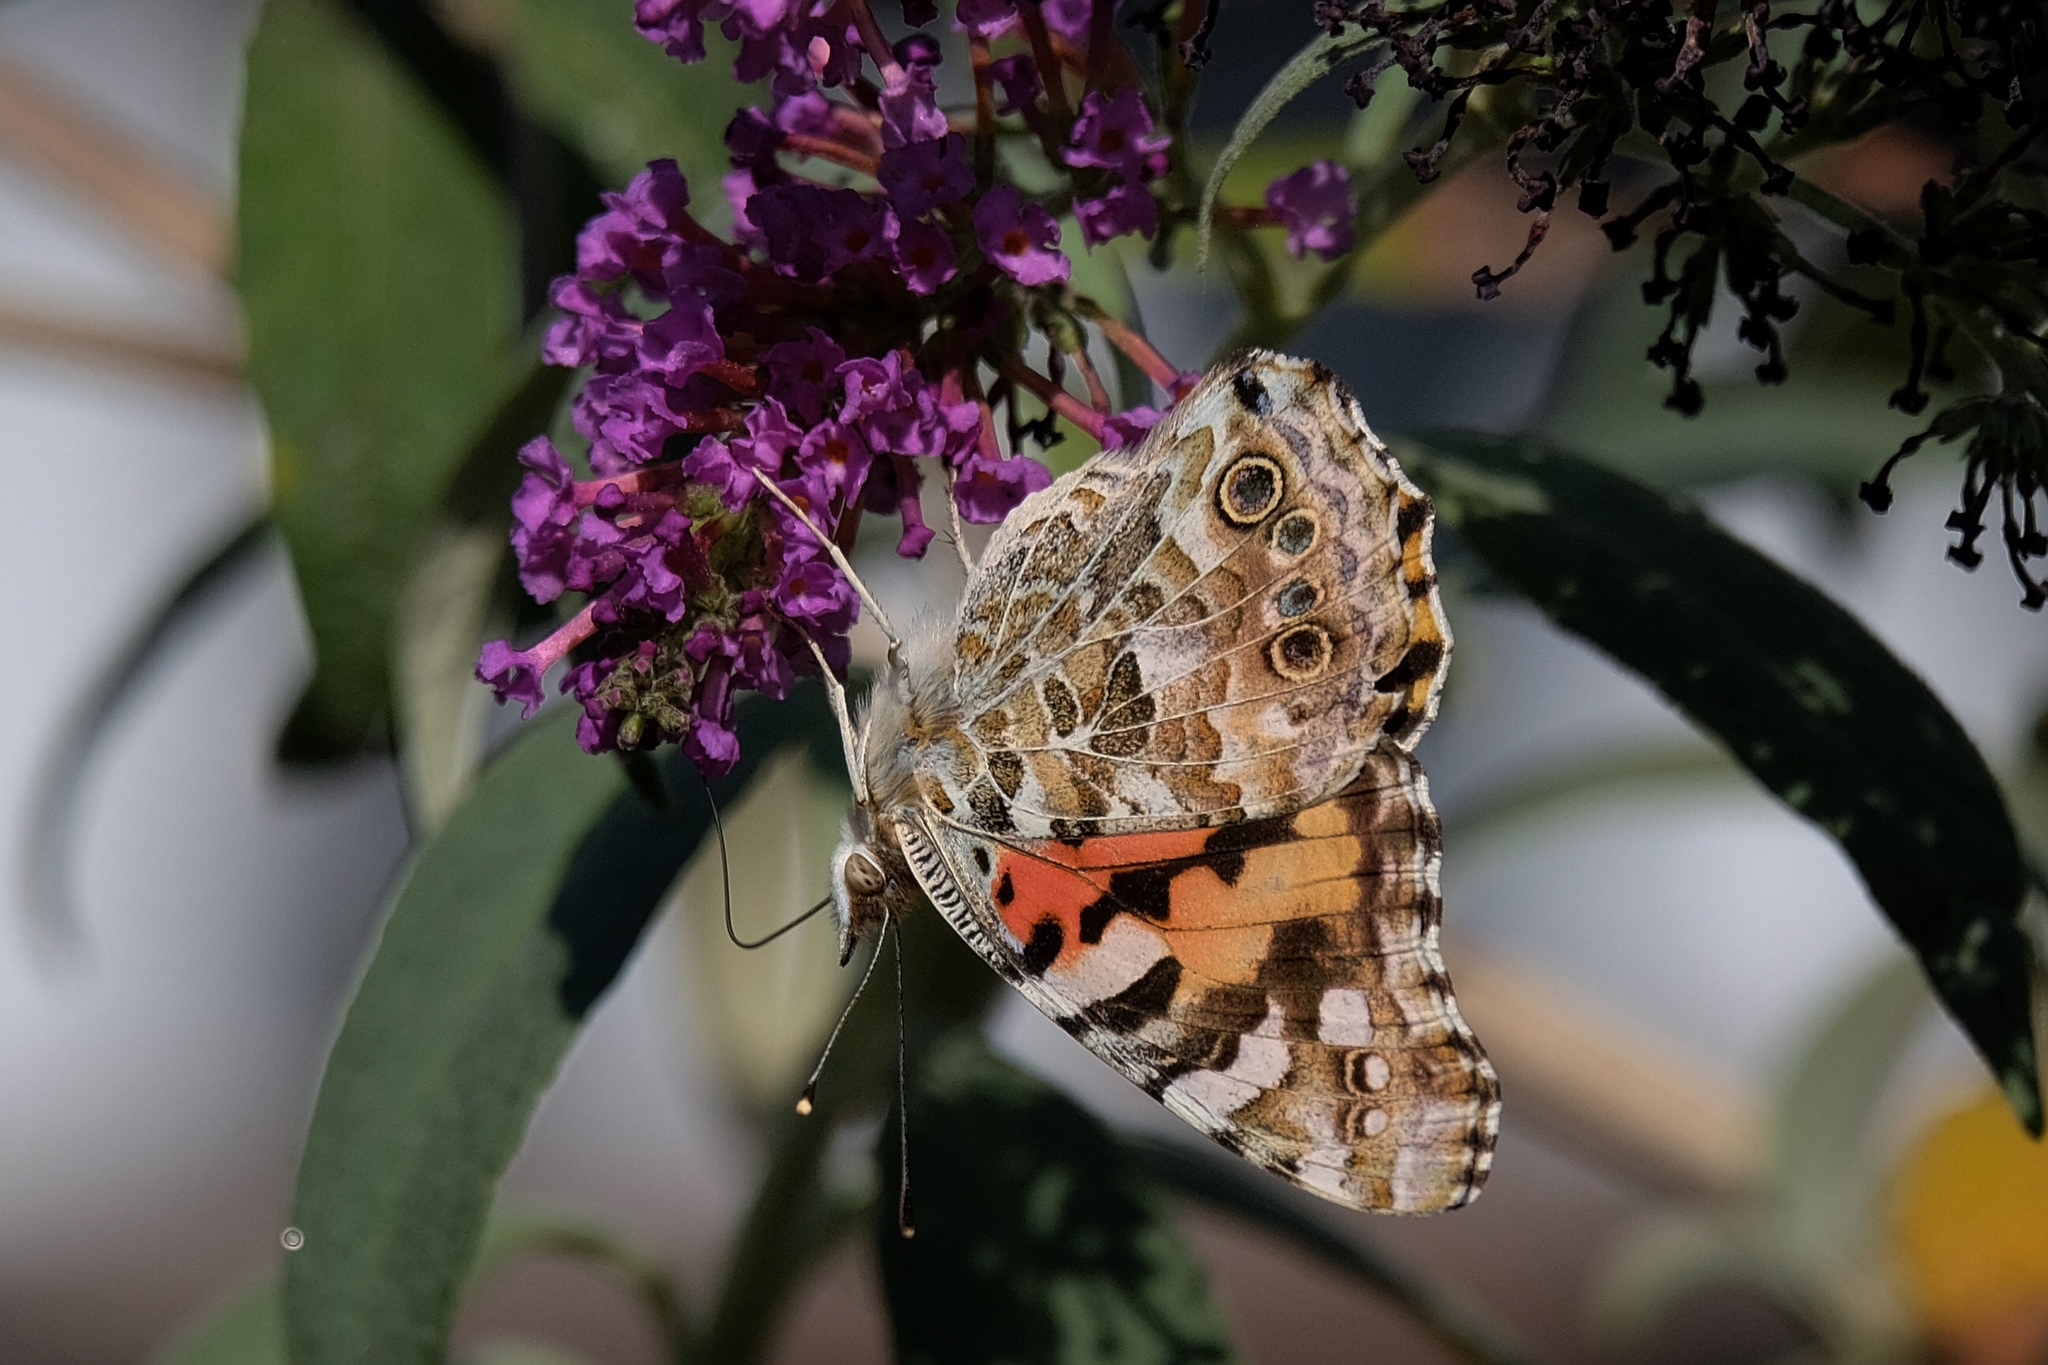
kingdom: Animalia
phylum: Arthropoda
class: Insecta
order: Lepidoptera
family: Nymphalidae
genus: Vanessa
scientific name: Vanessa cardui
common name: Painted lady
